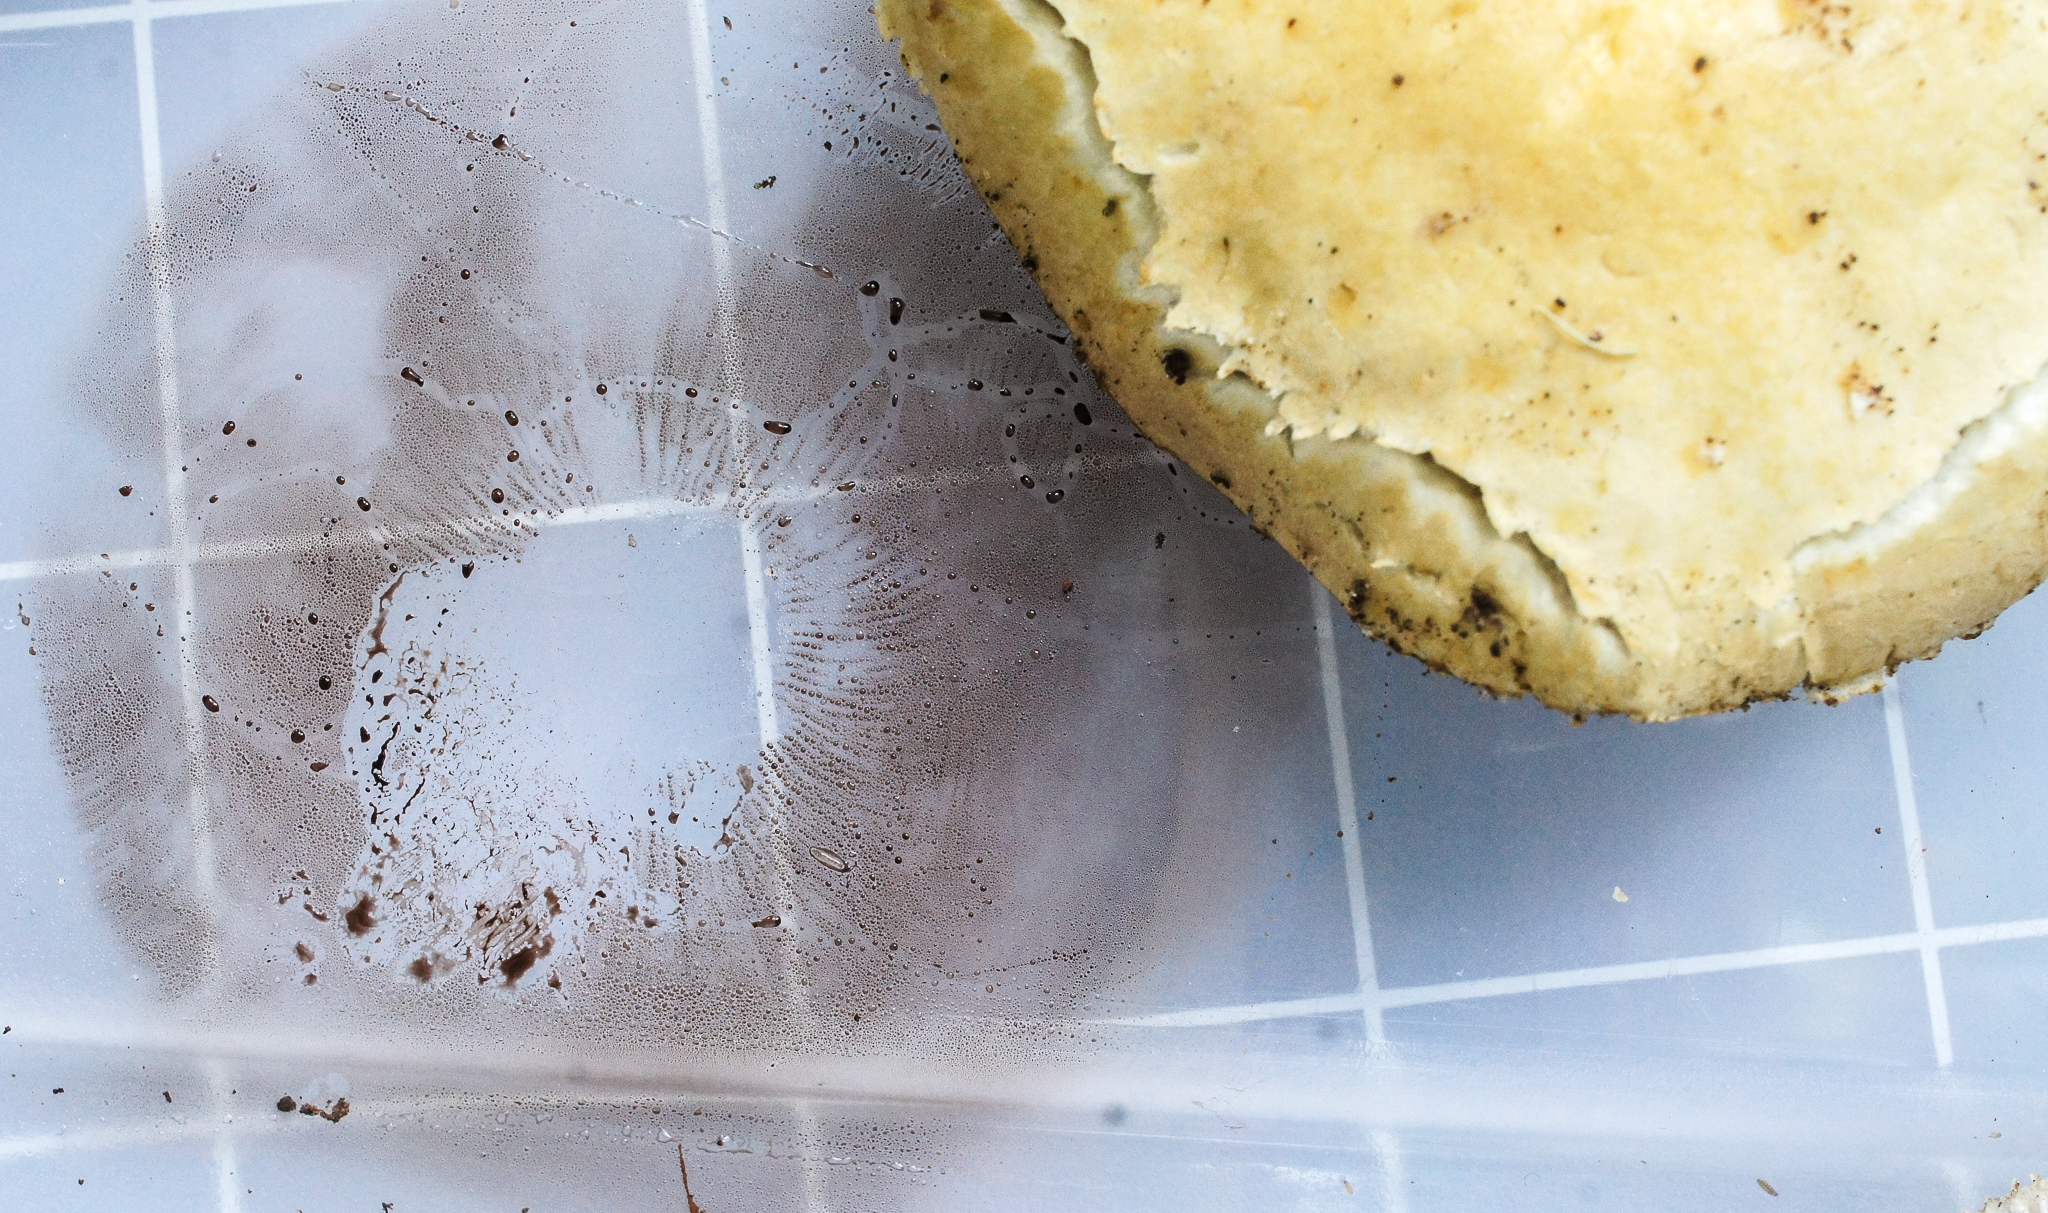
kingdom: Fungi
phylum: Basidiomycota
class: Agaricomycetes
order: Agaricales
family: Strophariaceae
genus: Stropharia
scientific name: Stropharia hardii
